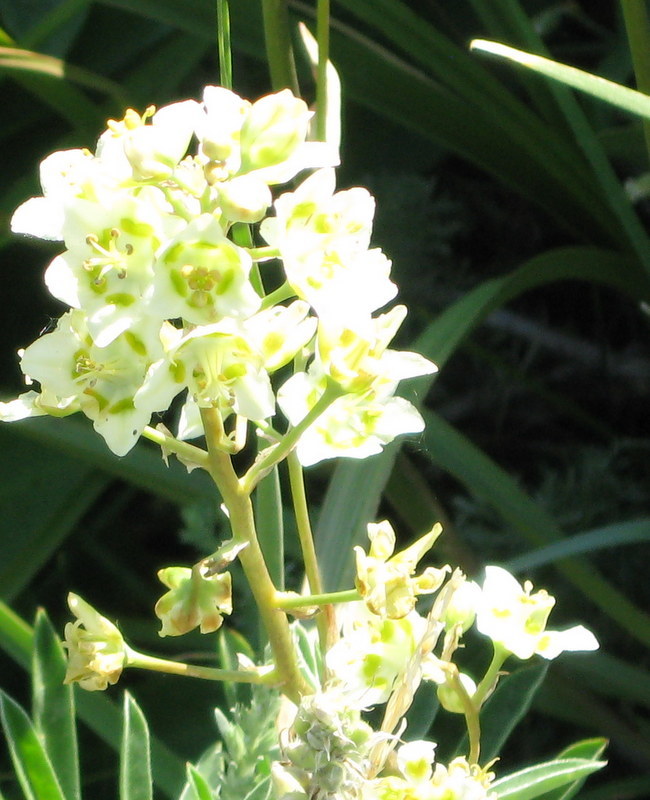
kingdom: Plantae
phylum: Tracheophyta
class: Liliopsida
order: Liliales
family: Melanthiaceae
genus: Anticlea
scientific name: Anticlea elegans
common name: Mountain death camas
